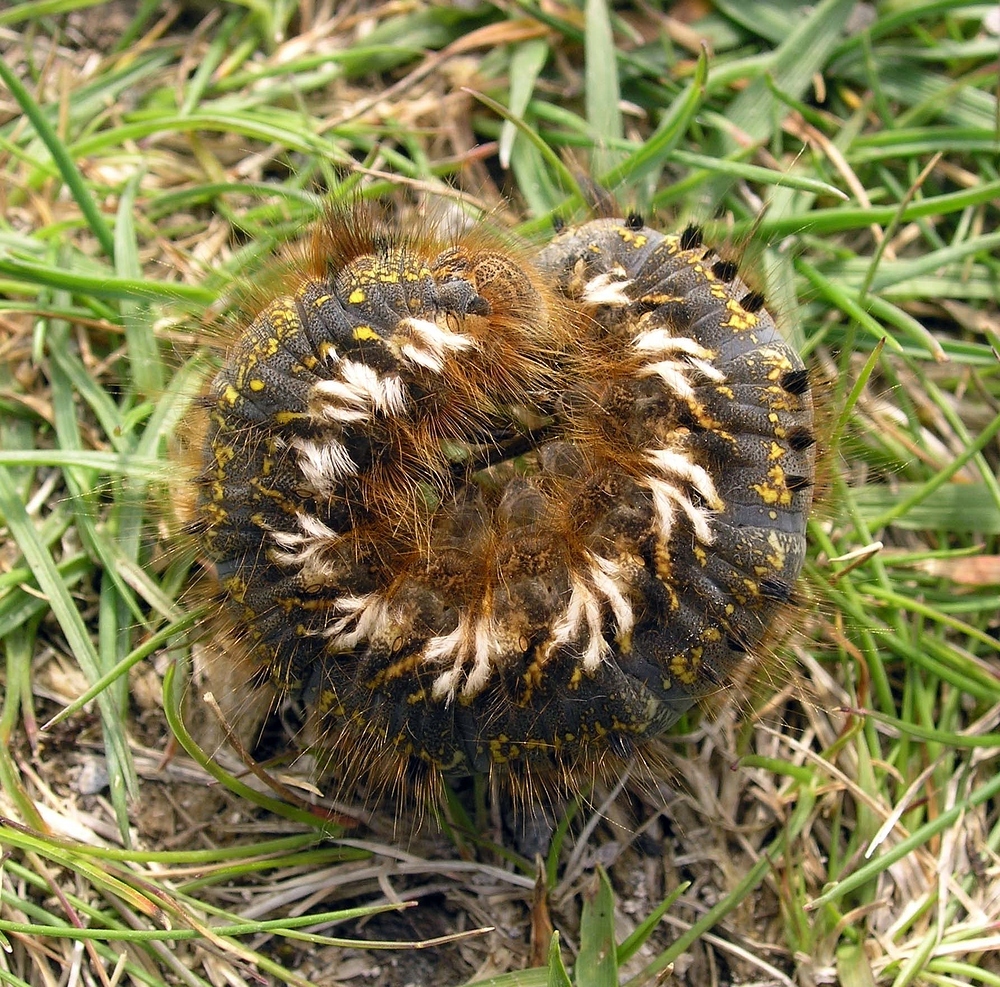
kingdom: Animalia
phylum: Arthropoda
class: Insecta
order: Lepidoptera
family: Lasiocampidae
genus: Euthrix
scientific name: Euthrix potatoria
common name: Drinker
